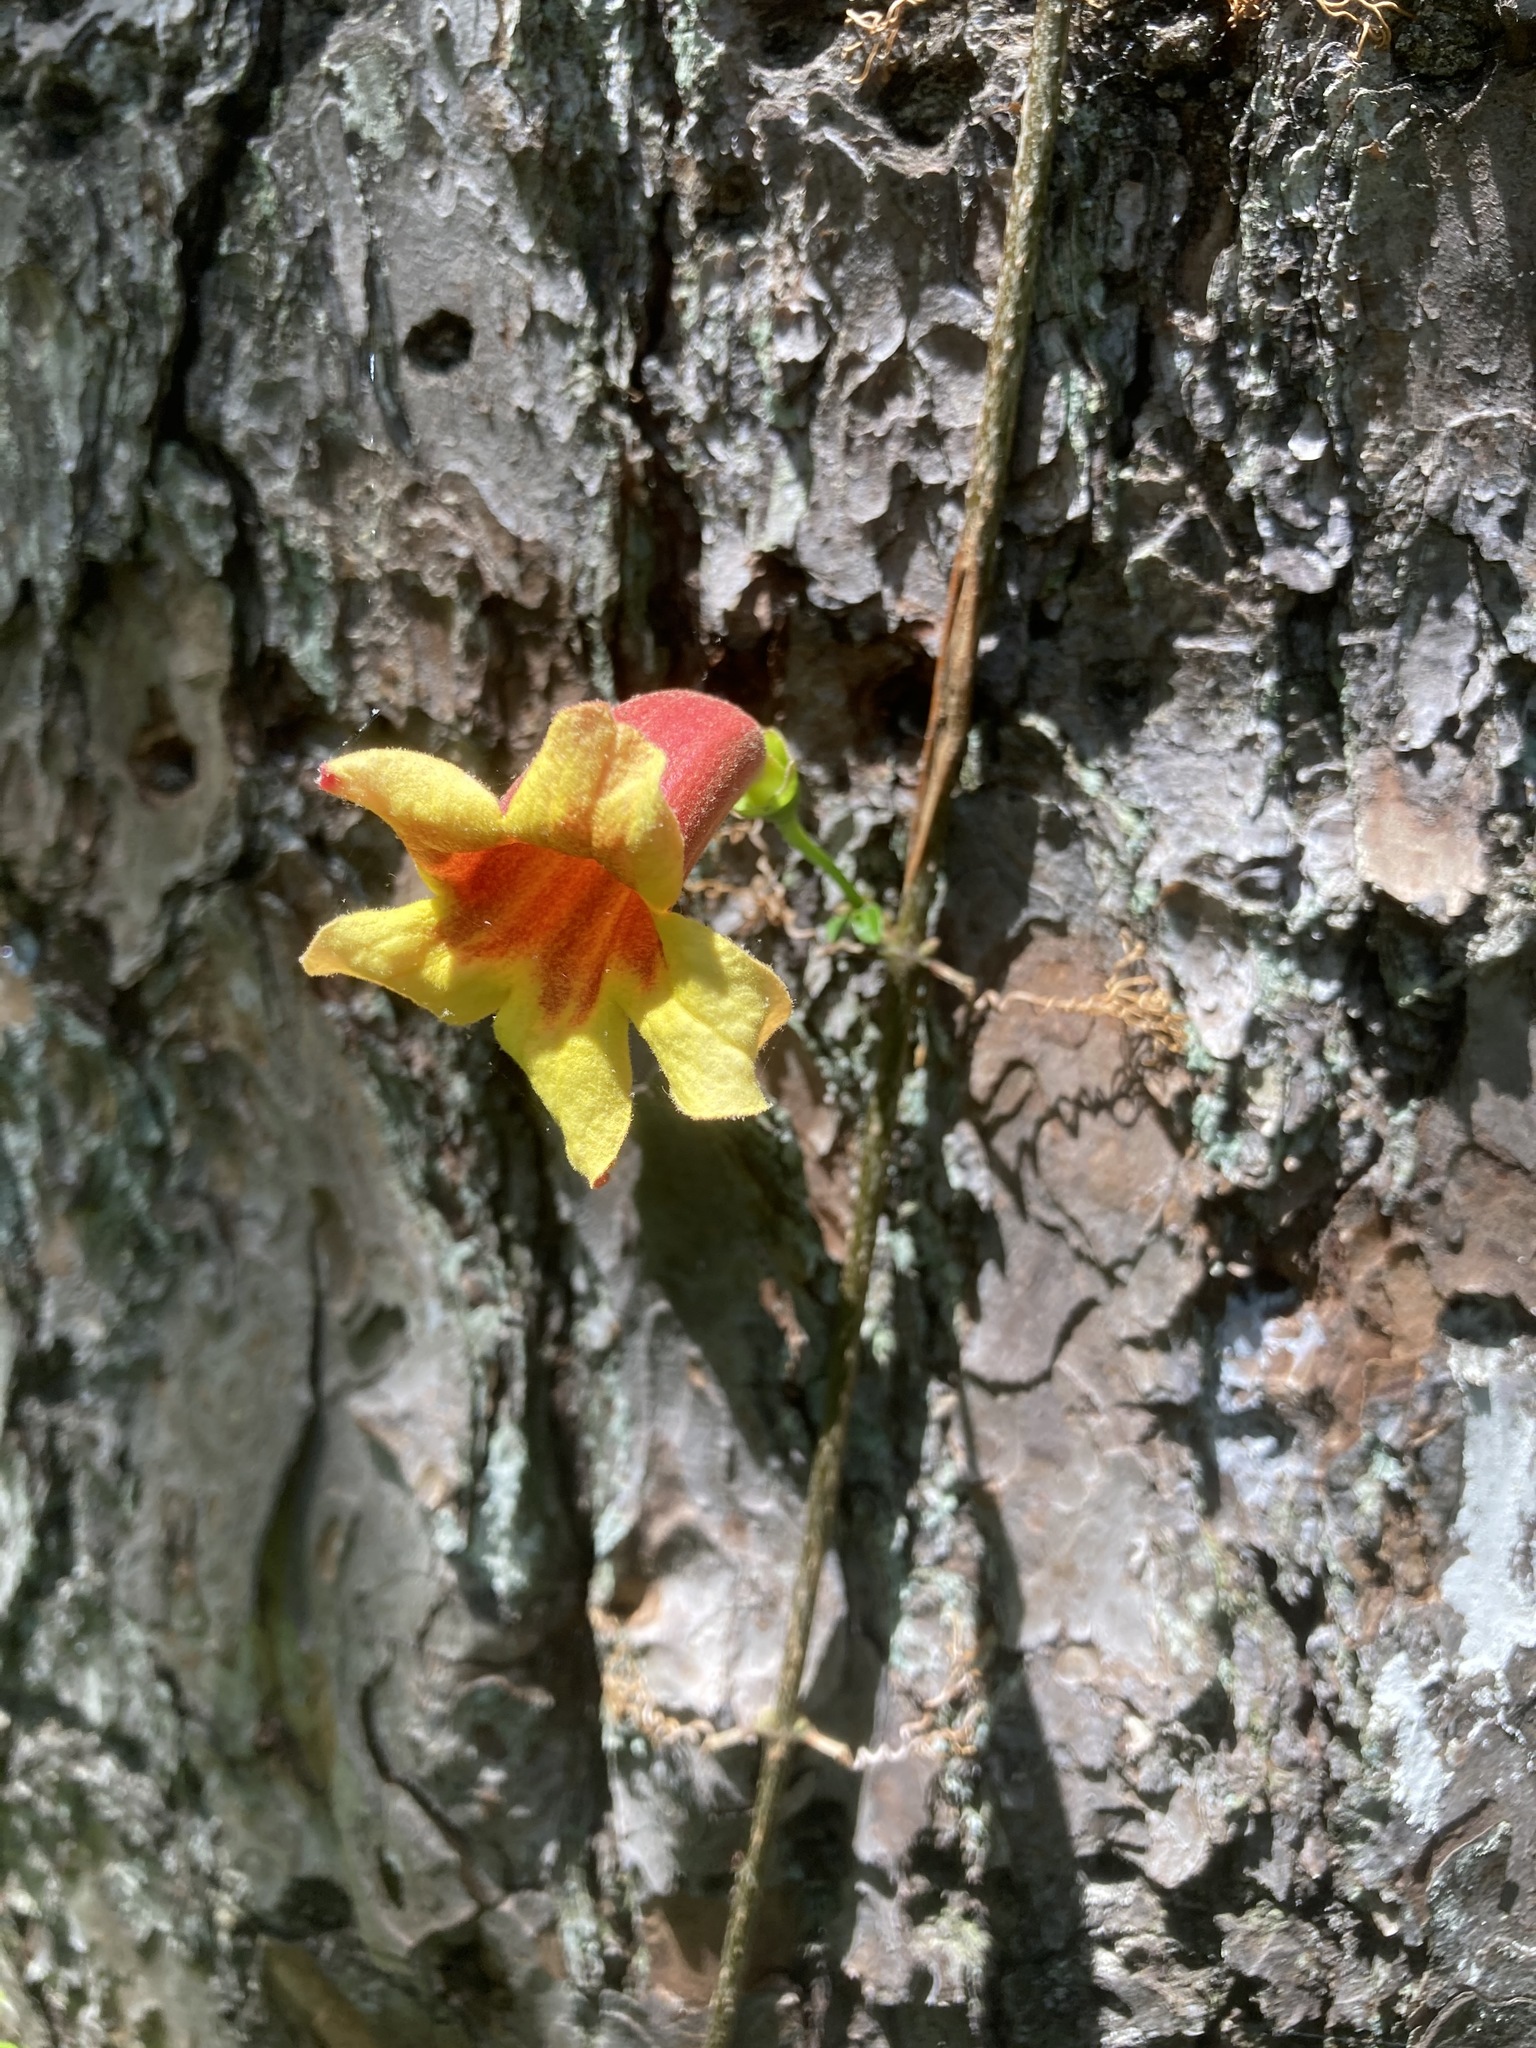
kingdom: Plantae
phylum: Tracheophyta
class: Magnoliopsida
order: Lamiales
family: Bignoniaceae
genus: Bignonia
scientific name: Bignonia capreolata
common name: Crossvine
